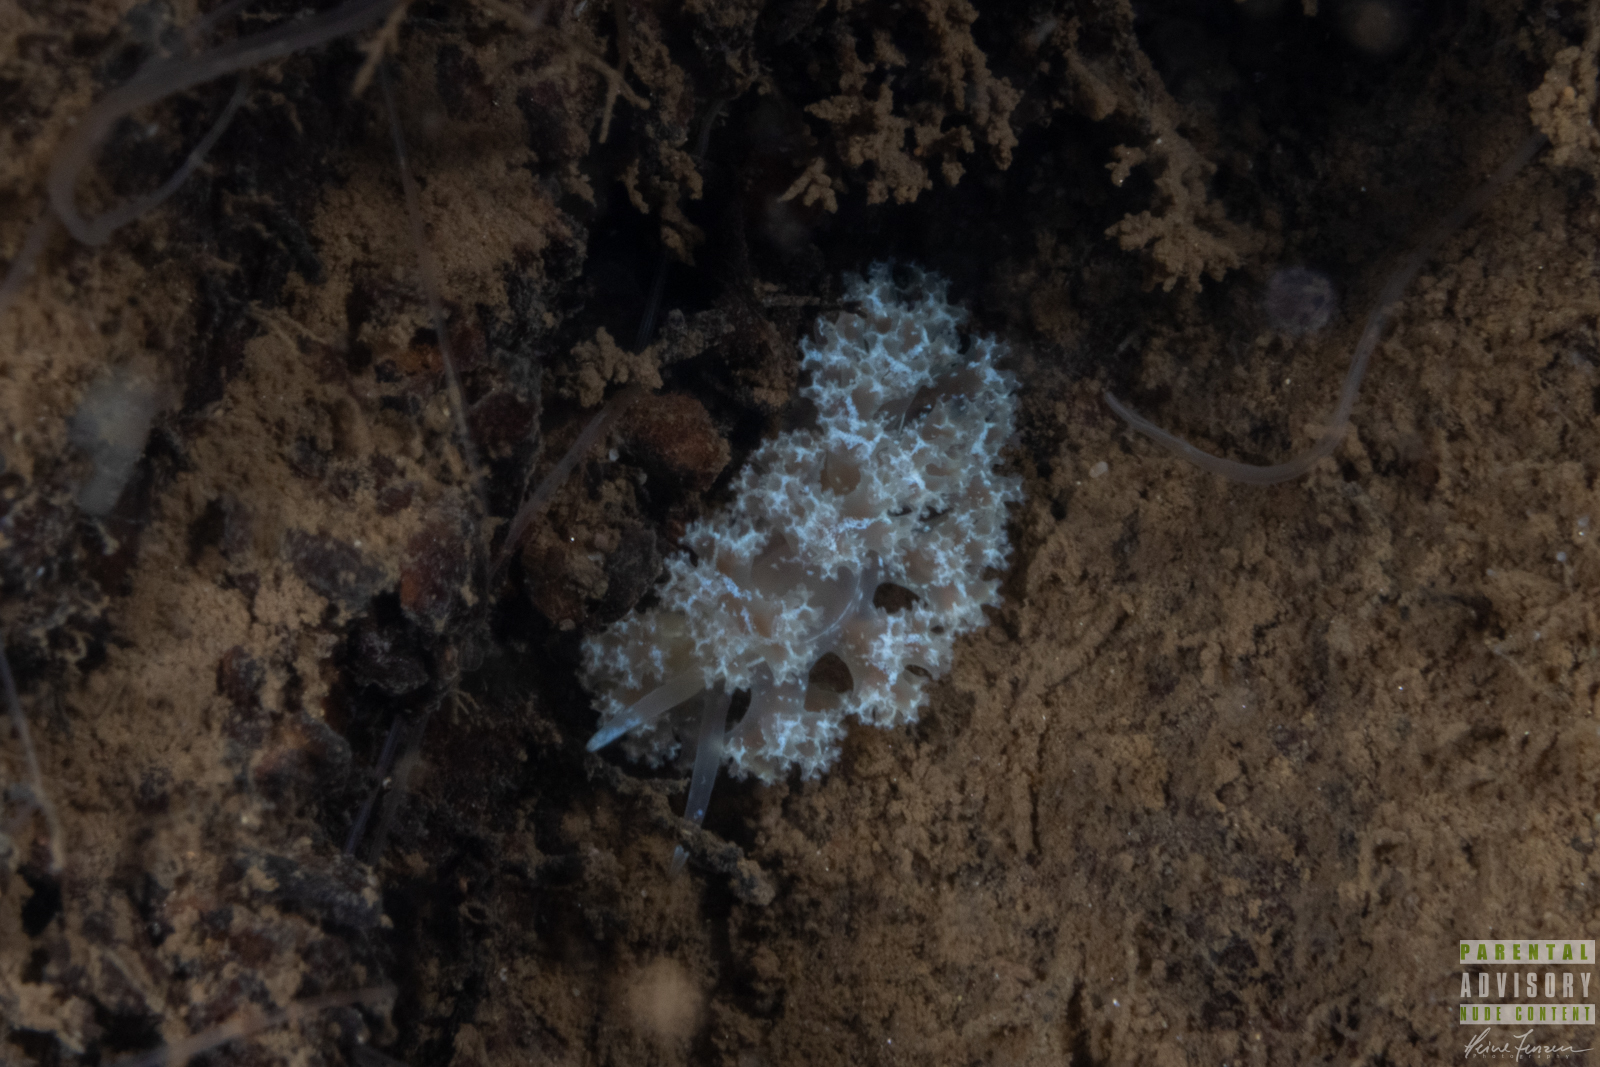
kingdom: Animalia
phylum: Mollusca
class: Gastropoda
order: Nudibranchia
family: Heroidae
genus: Hero
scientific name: Hero formosa
